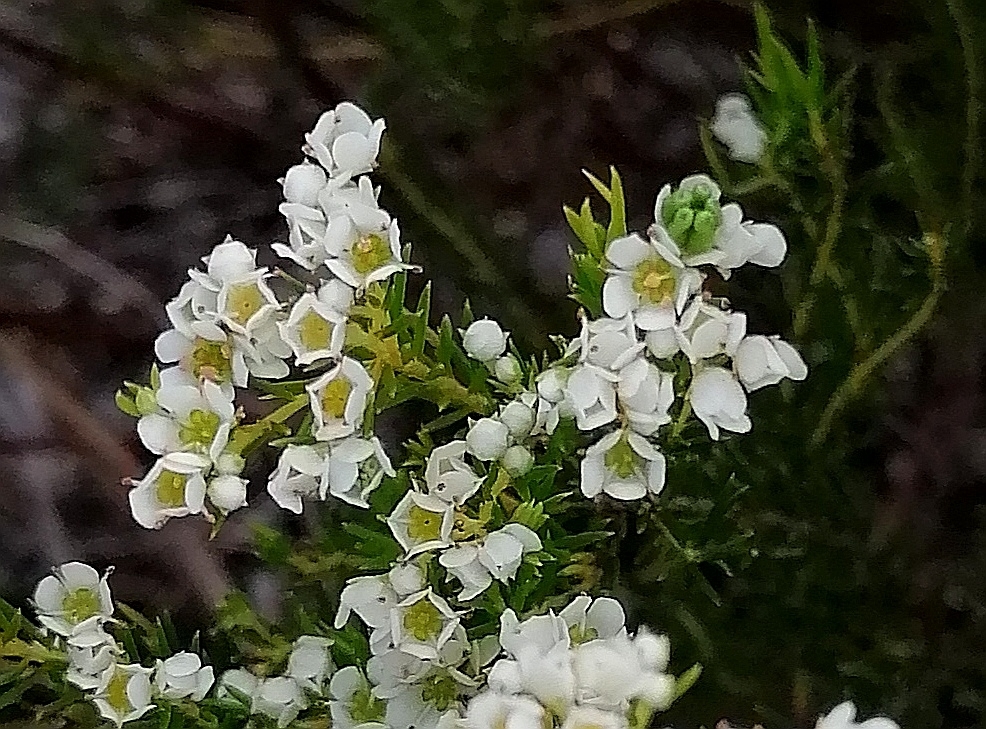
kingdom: Plantae
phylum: Tracheophyta
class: Magnoliopsida
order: Sapindales
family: Rutaceae
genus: Diosma
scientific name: Diosma hirsuta
